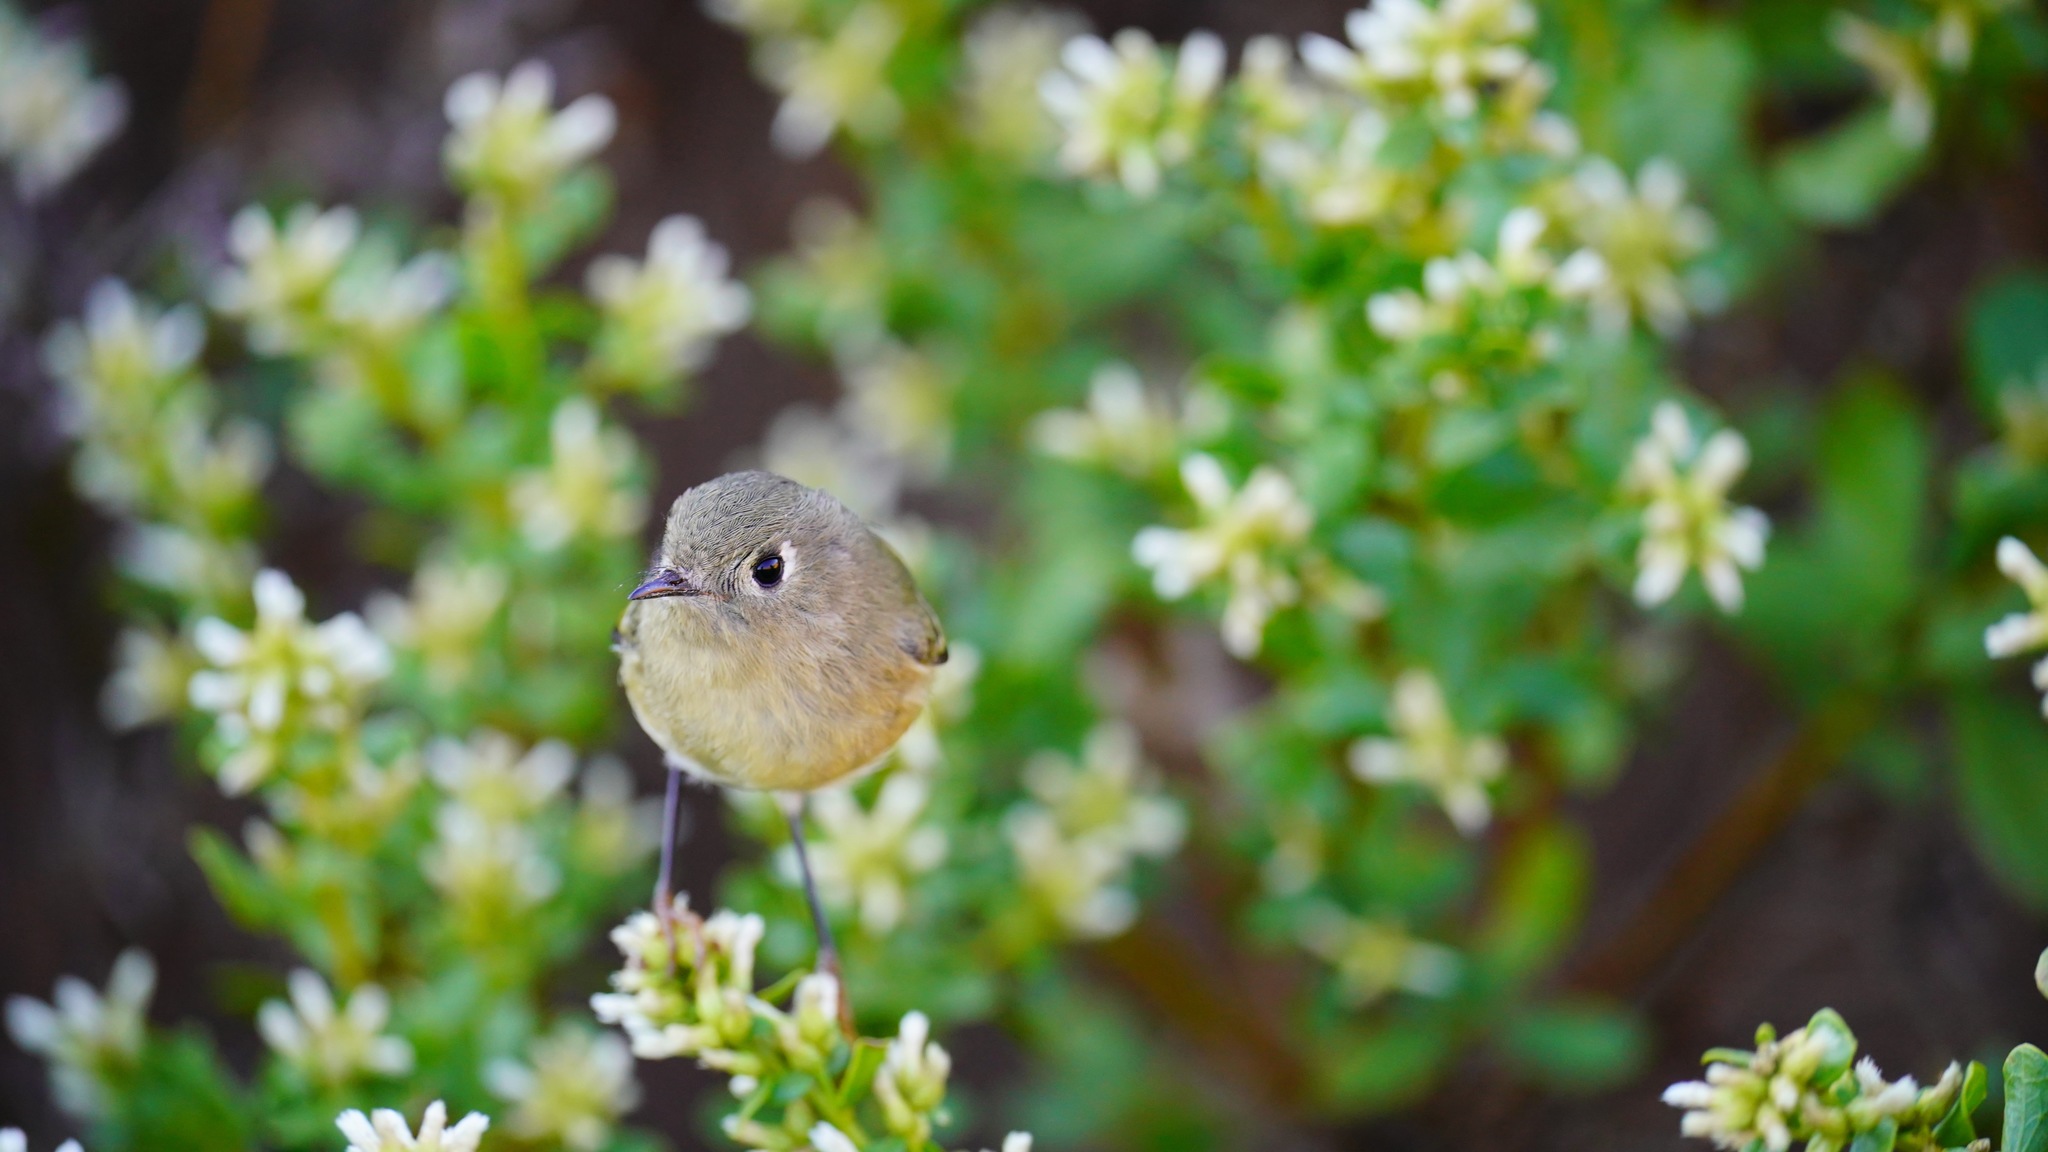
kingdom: Animalia
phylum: Chordata
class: Aves
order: Passeriformes
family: Regulidae
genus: Regulus
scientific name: Regulus calendula
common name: Ruby-crowned kinglet
